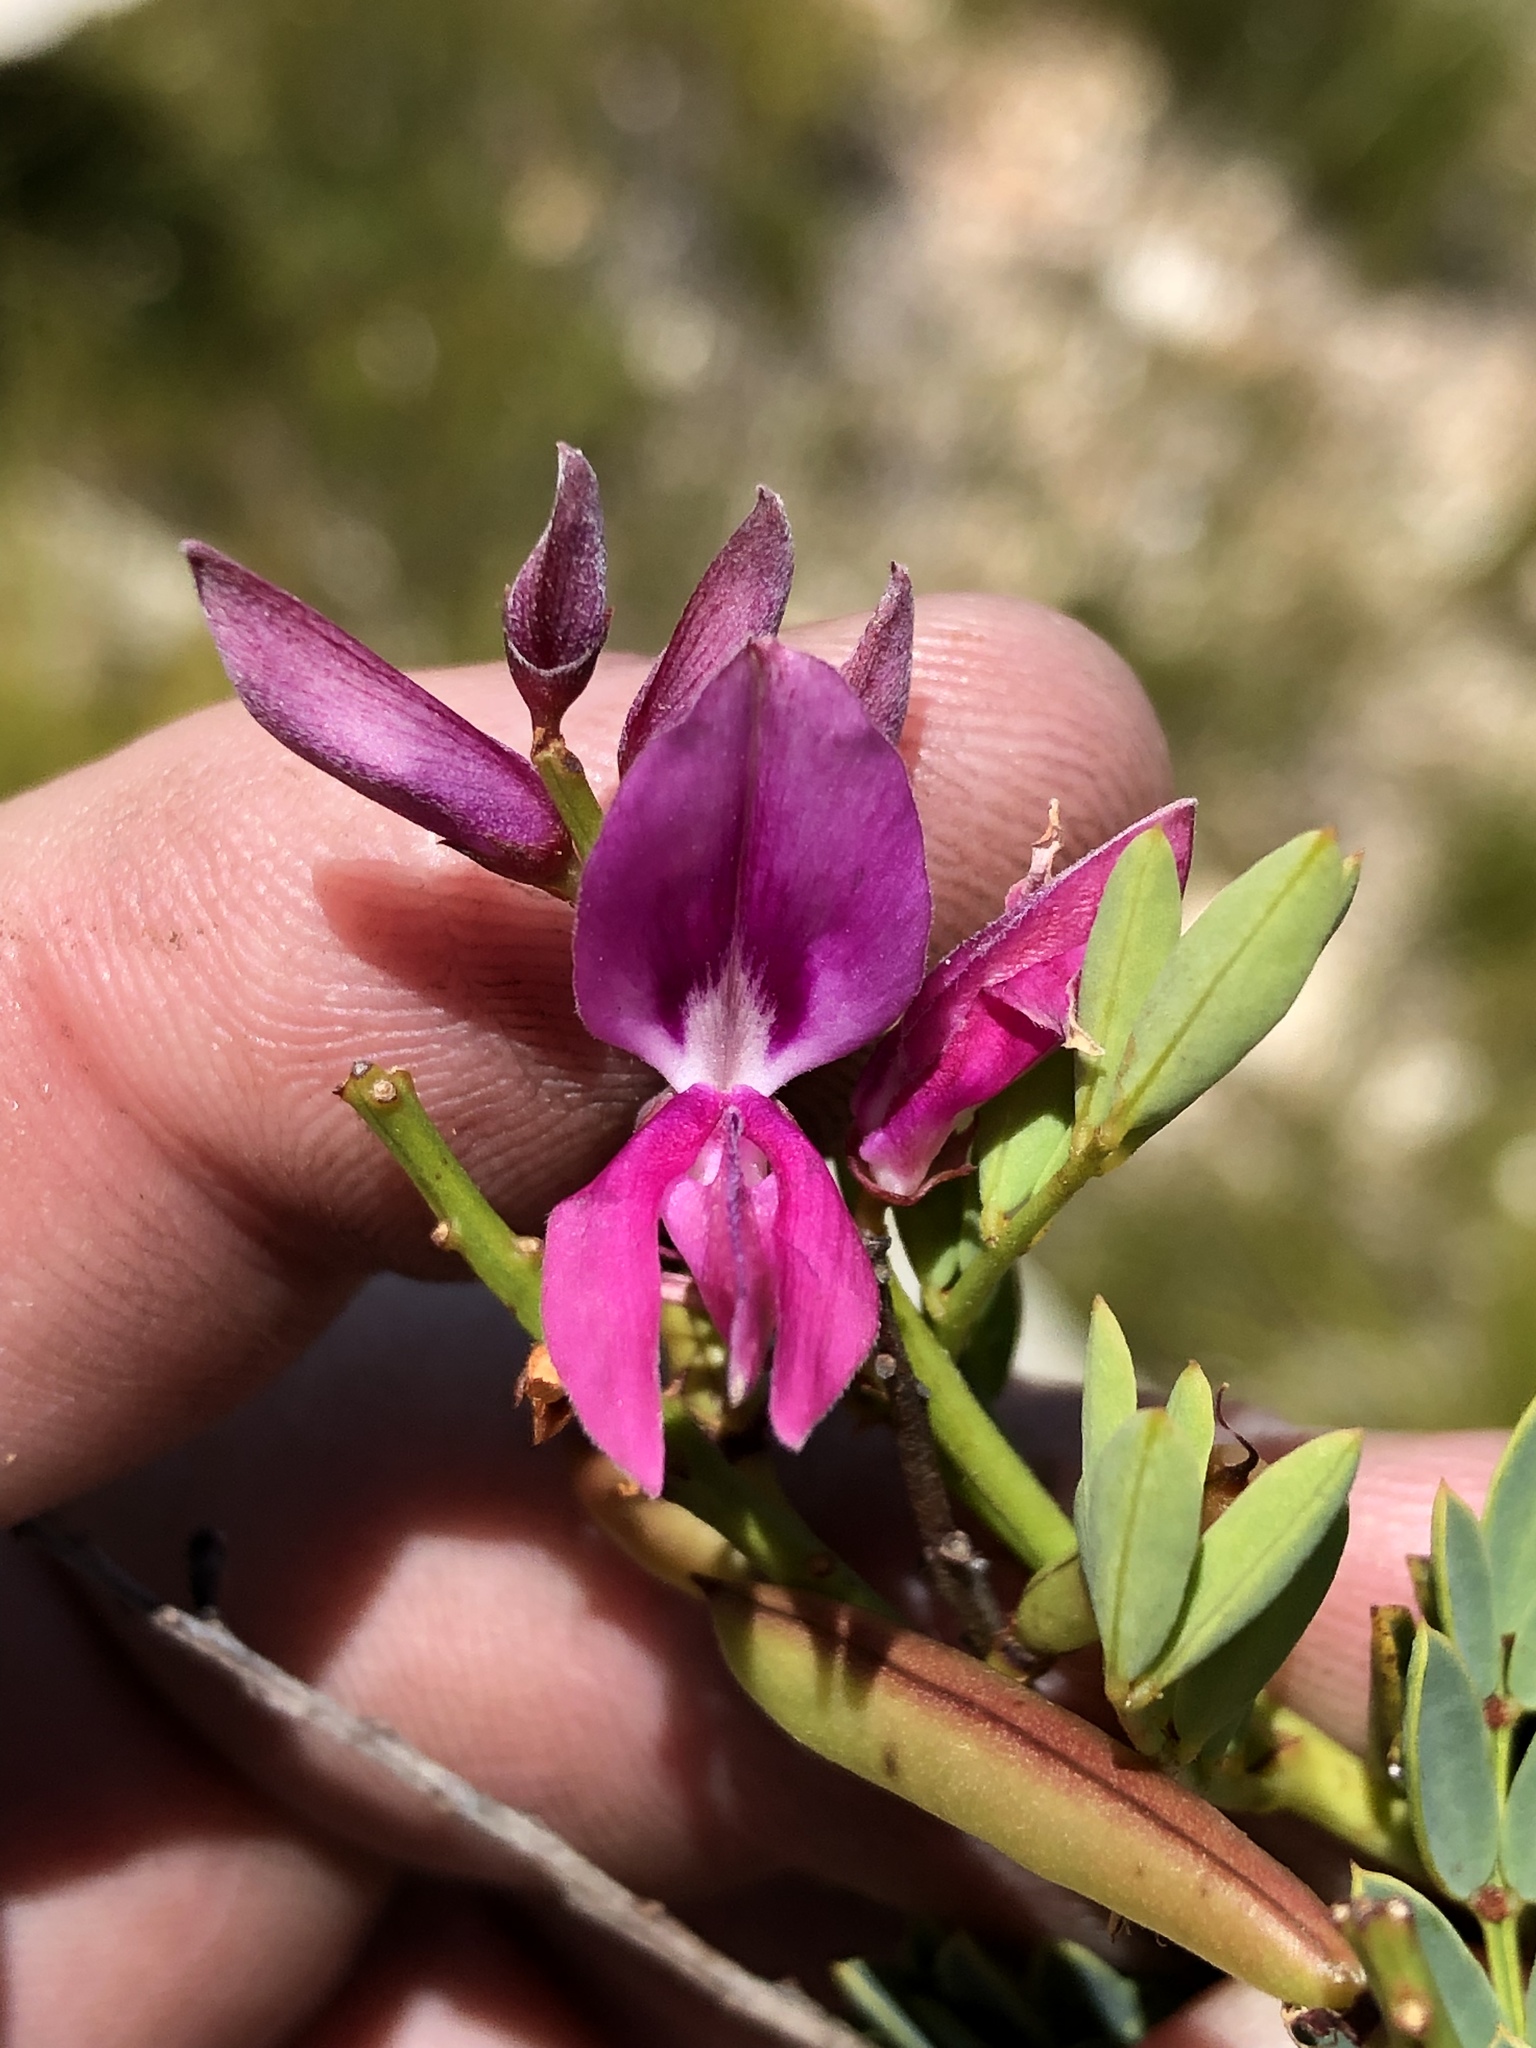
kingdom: Plantae
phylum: Tracheophyta
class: Magnoliopsida
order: Fabales
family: Fabaceae
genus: Indigofera
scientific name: Indigofera langebergensis
